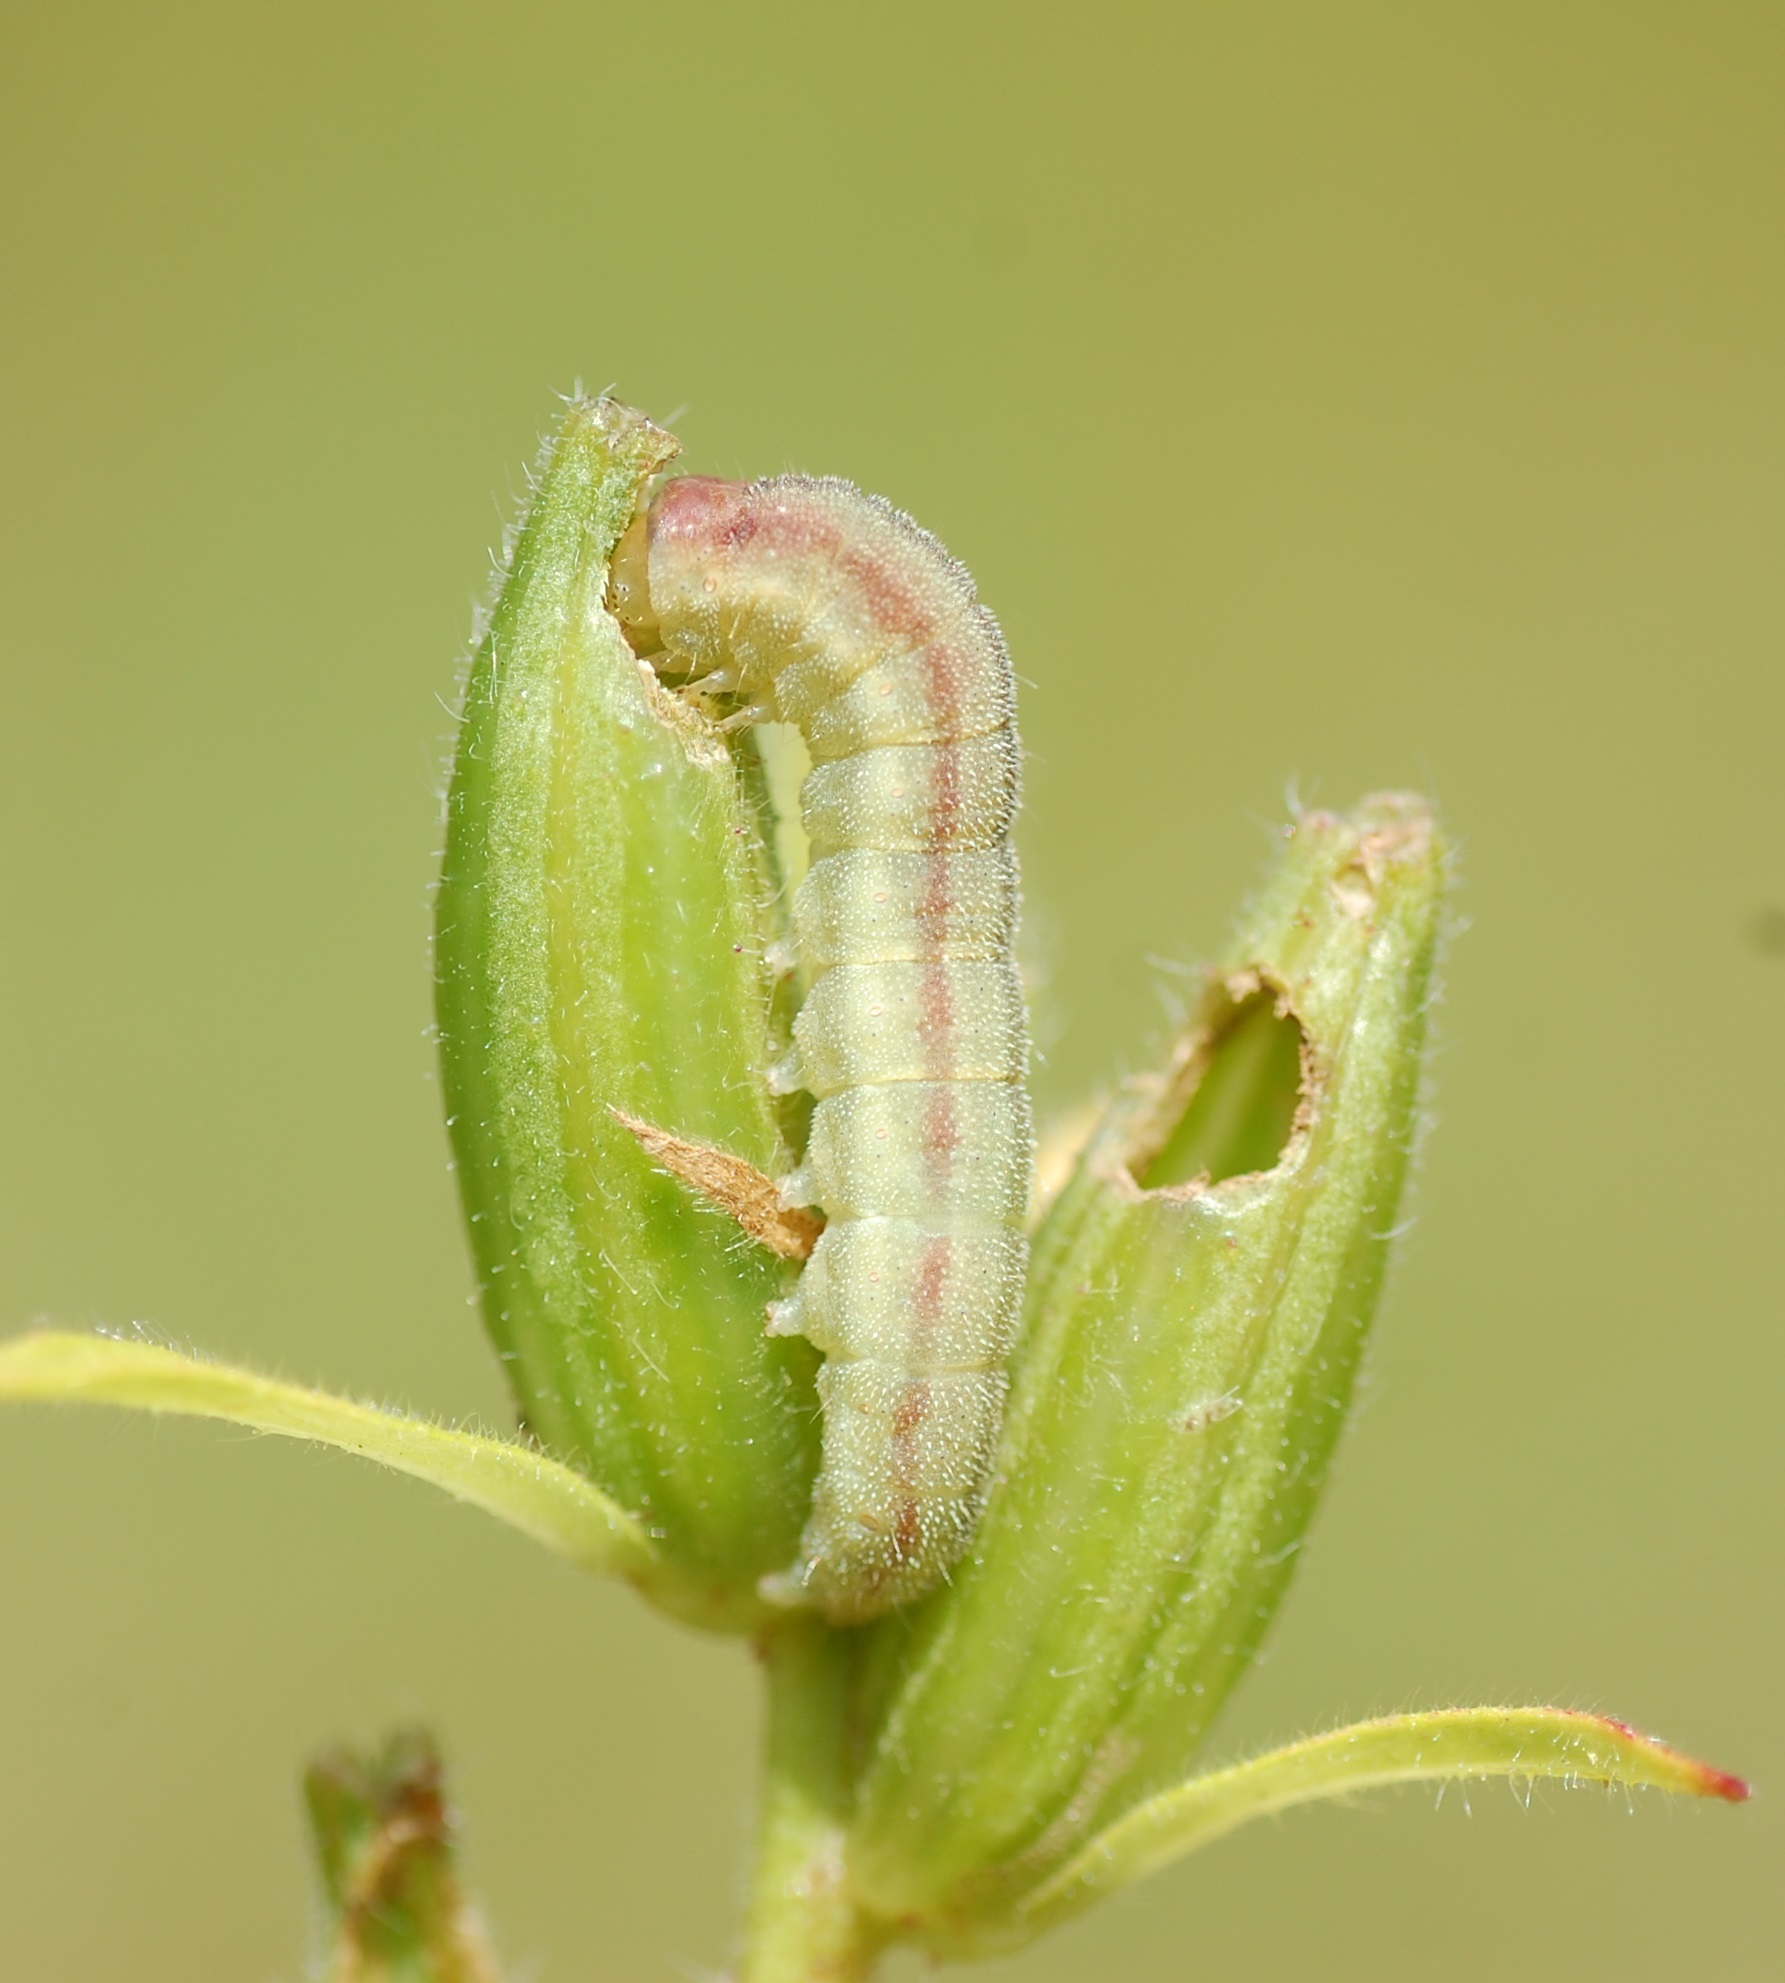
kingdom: Animalia
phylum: Arthropoda
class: Insecta
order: Lepidoptera
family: Noctuidae
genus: Schinia
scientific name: Schinia florida
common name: Primrose moth
